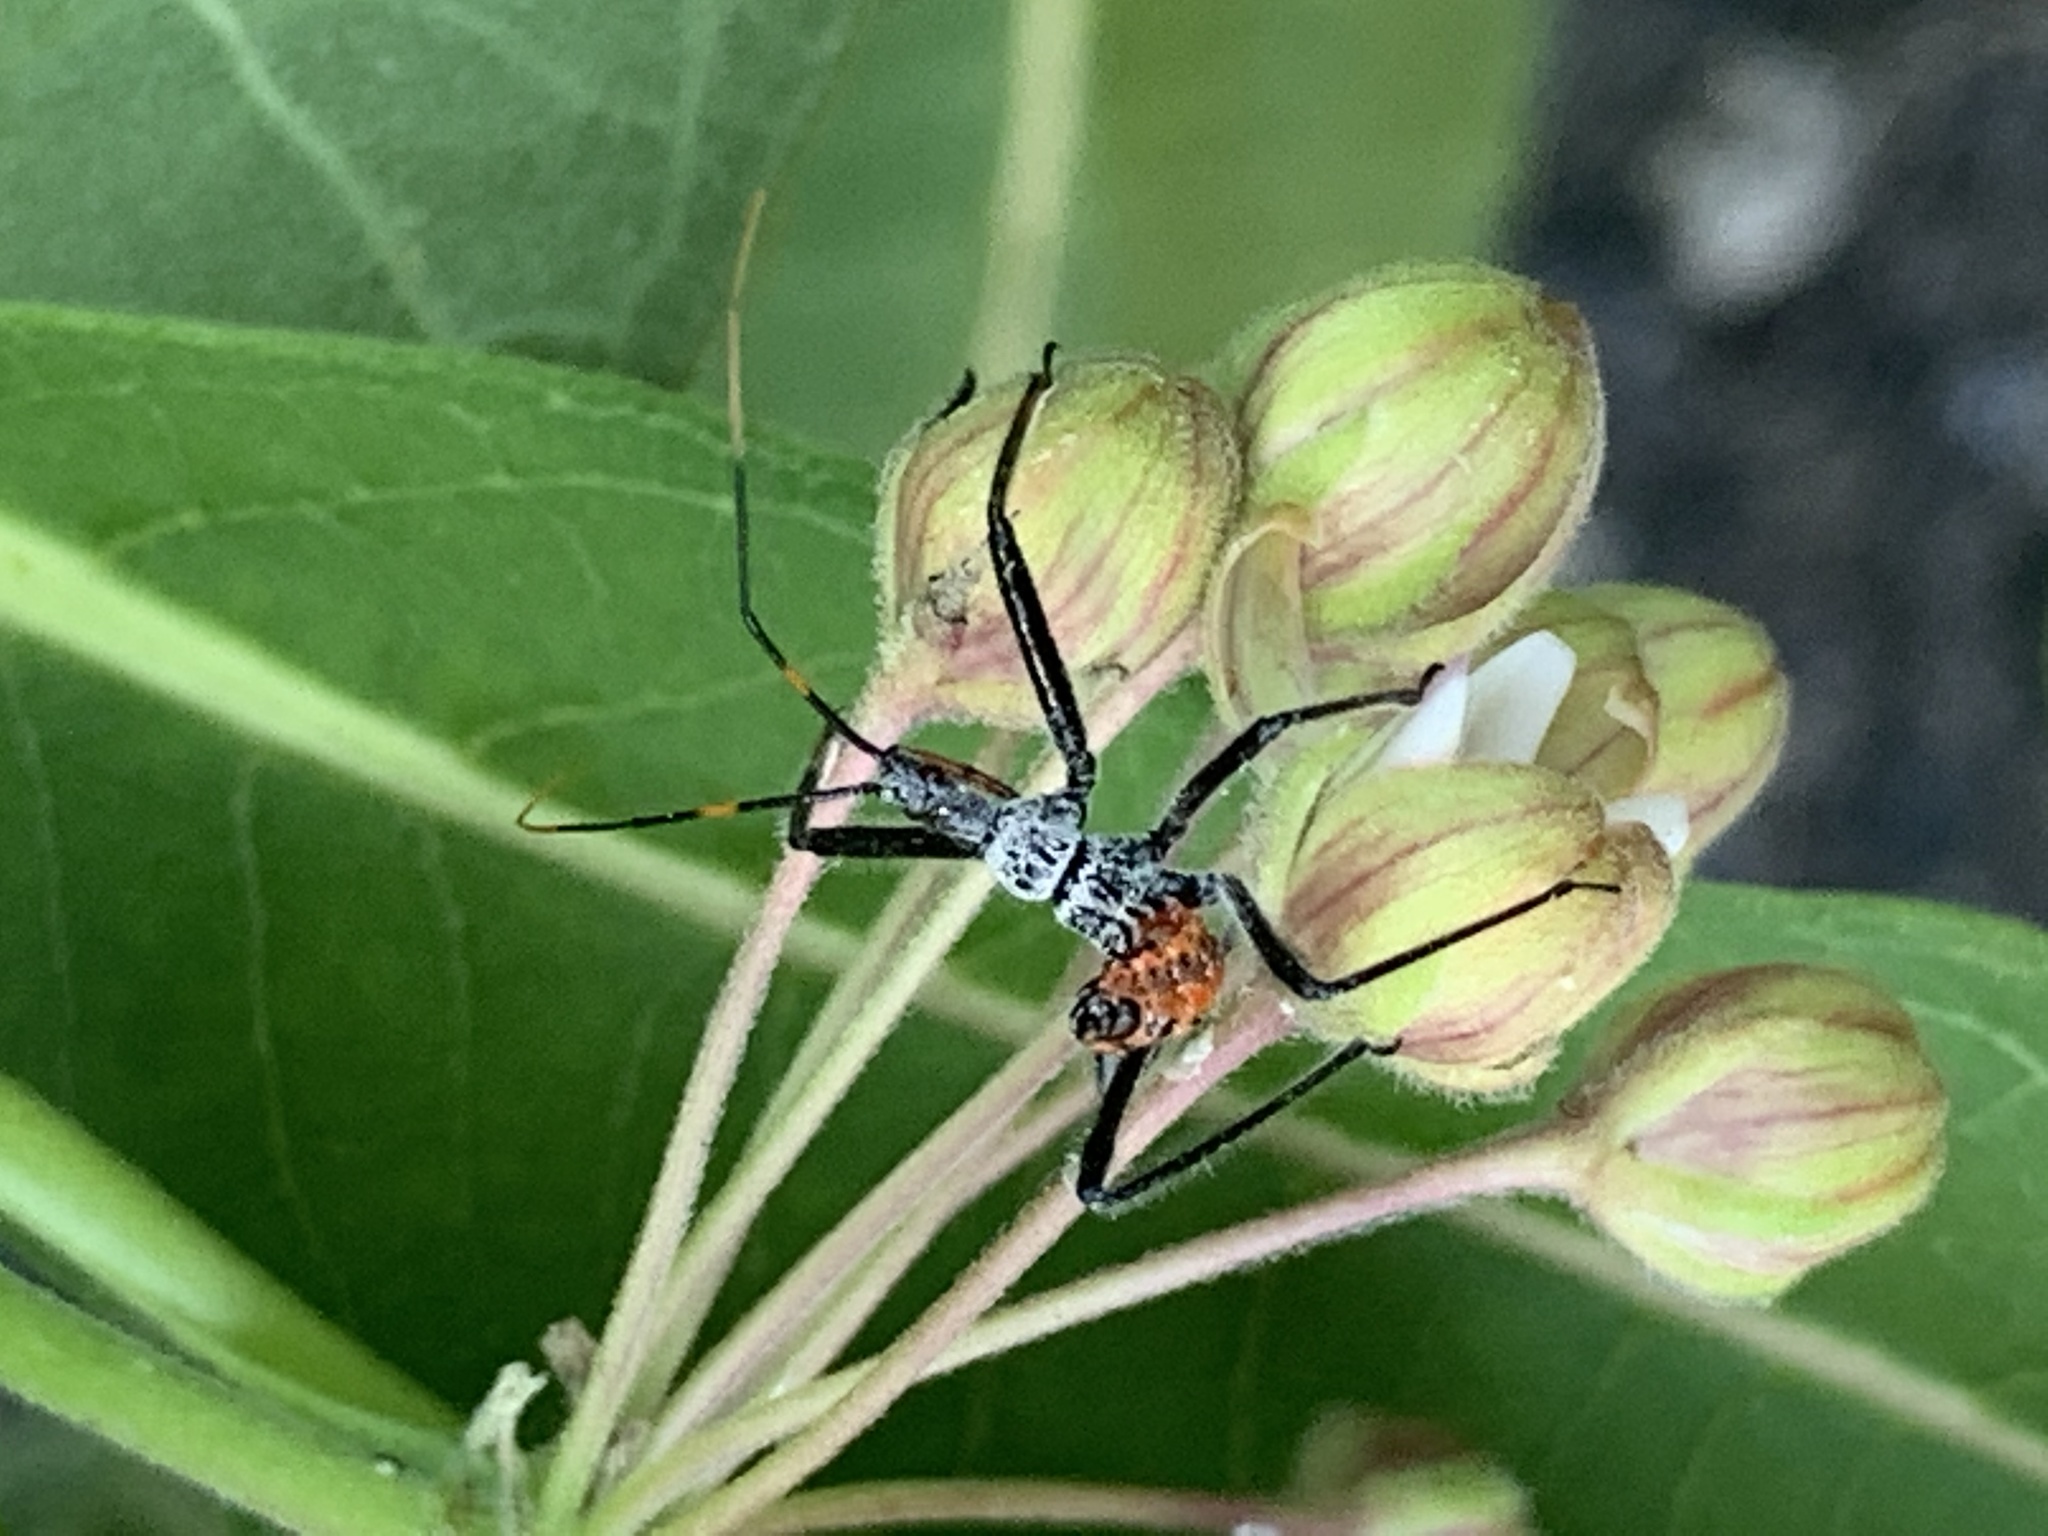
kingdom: Animalia
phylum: Arthropoda
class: Insecta
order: Hemiptera
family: Reduviidae
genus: Arilus
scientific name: Arilus cristatus
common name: North american wheel bug
